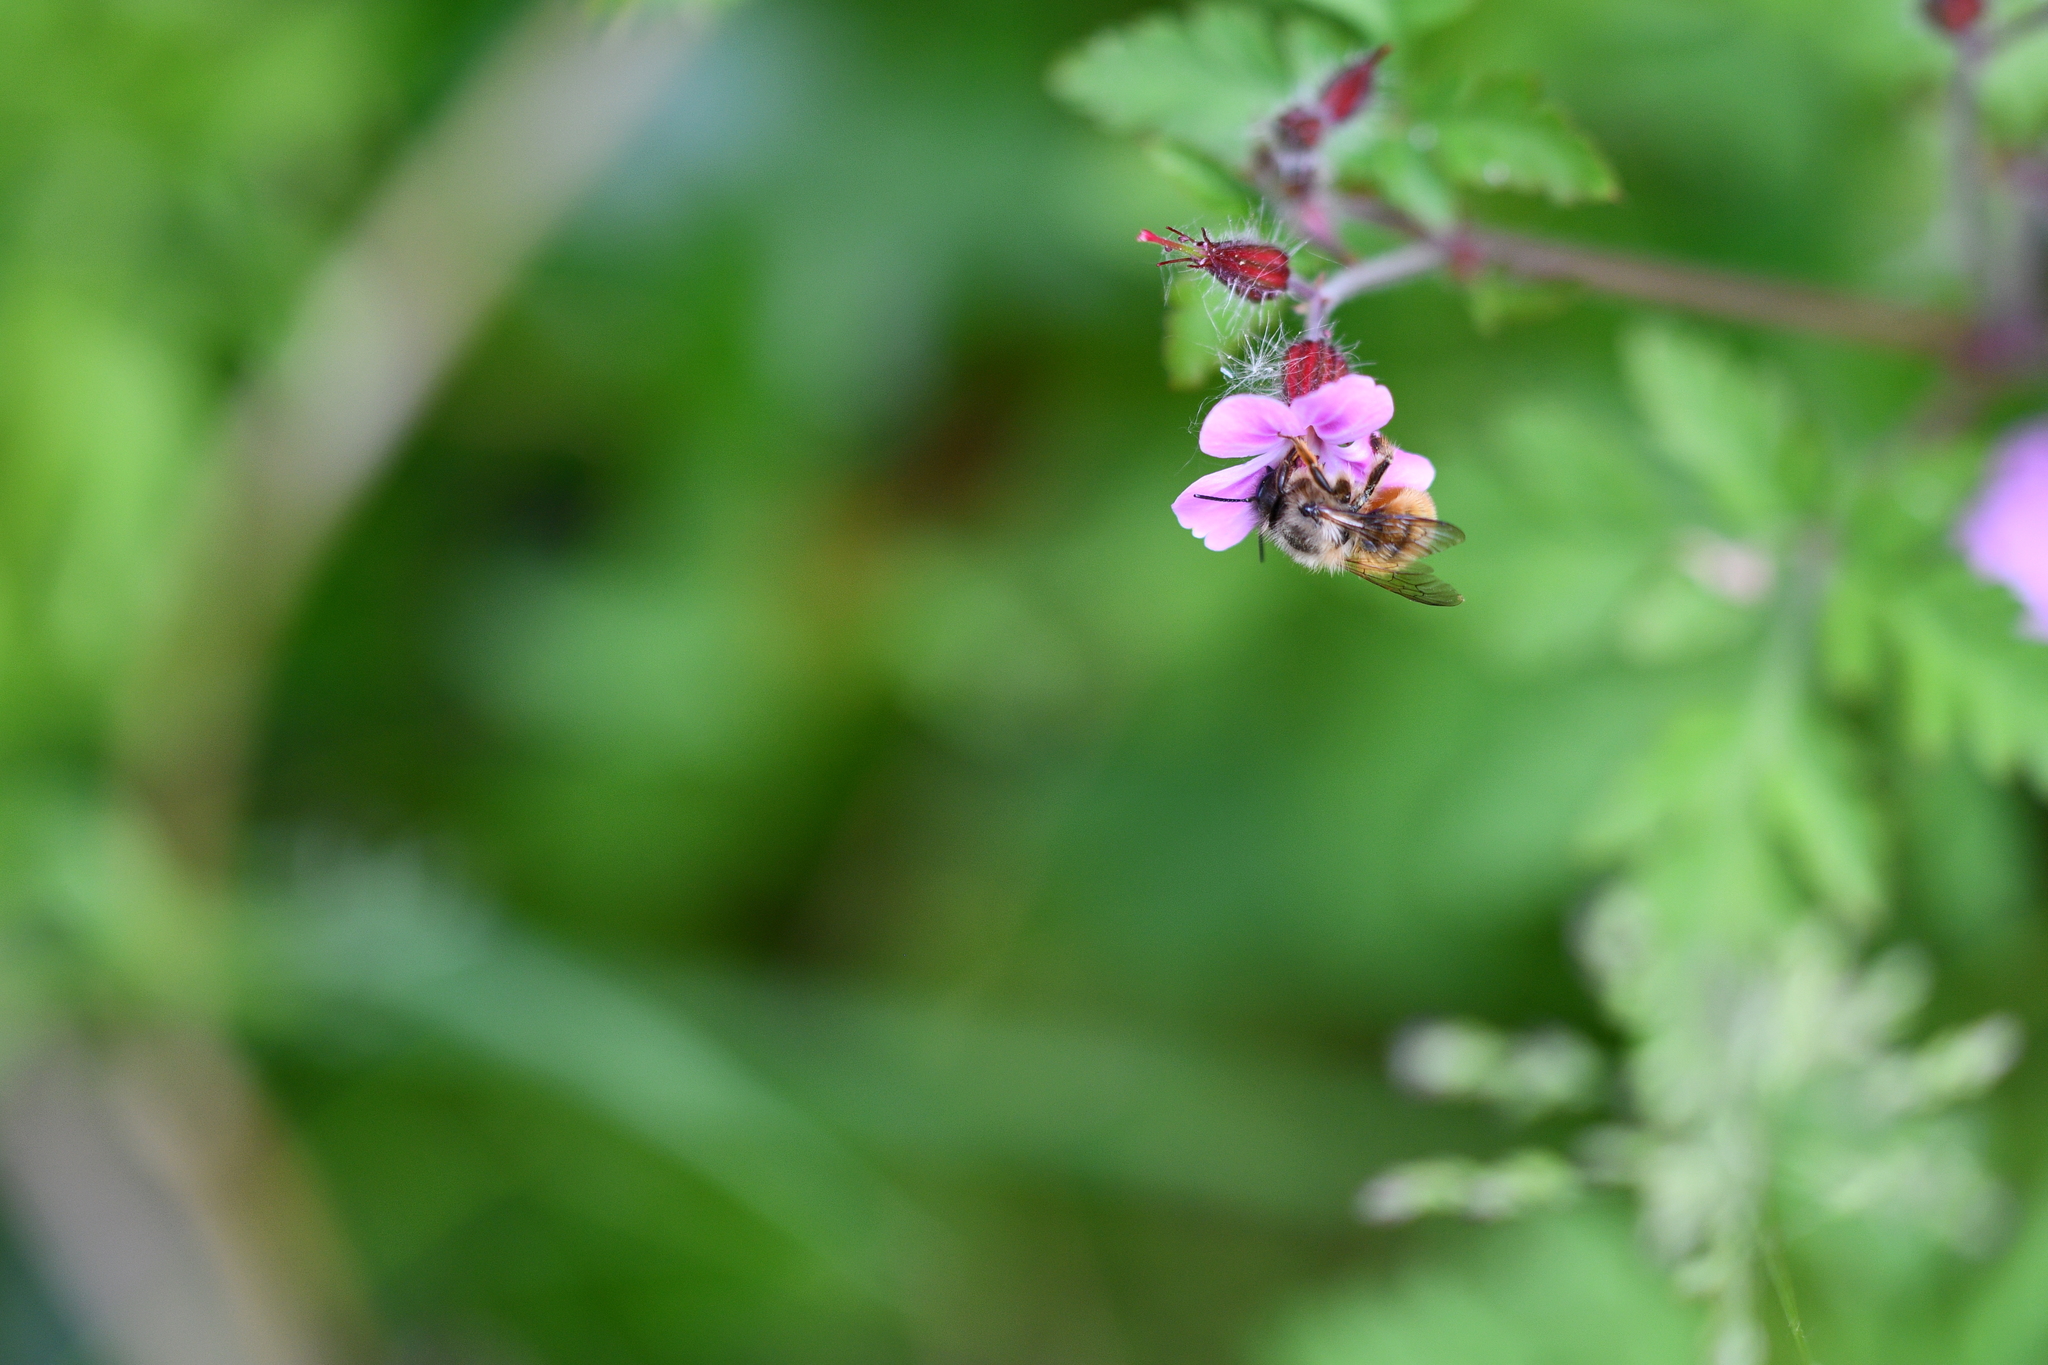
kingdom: Animalia
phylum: Arthropoda
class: Insecta
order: Hymenoptera
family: Megachilidae
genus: Osmia
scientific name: Osmia bicornis
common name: Red mason bee
